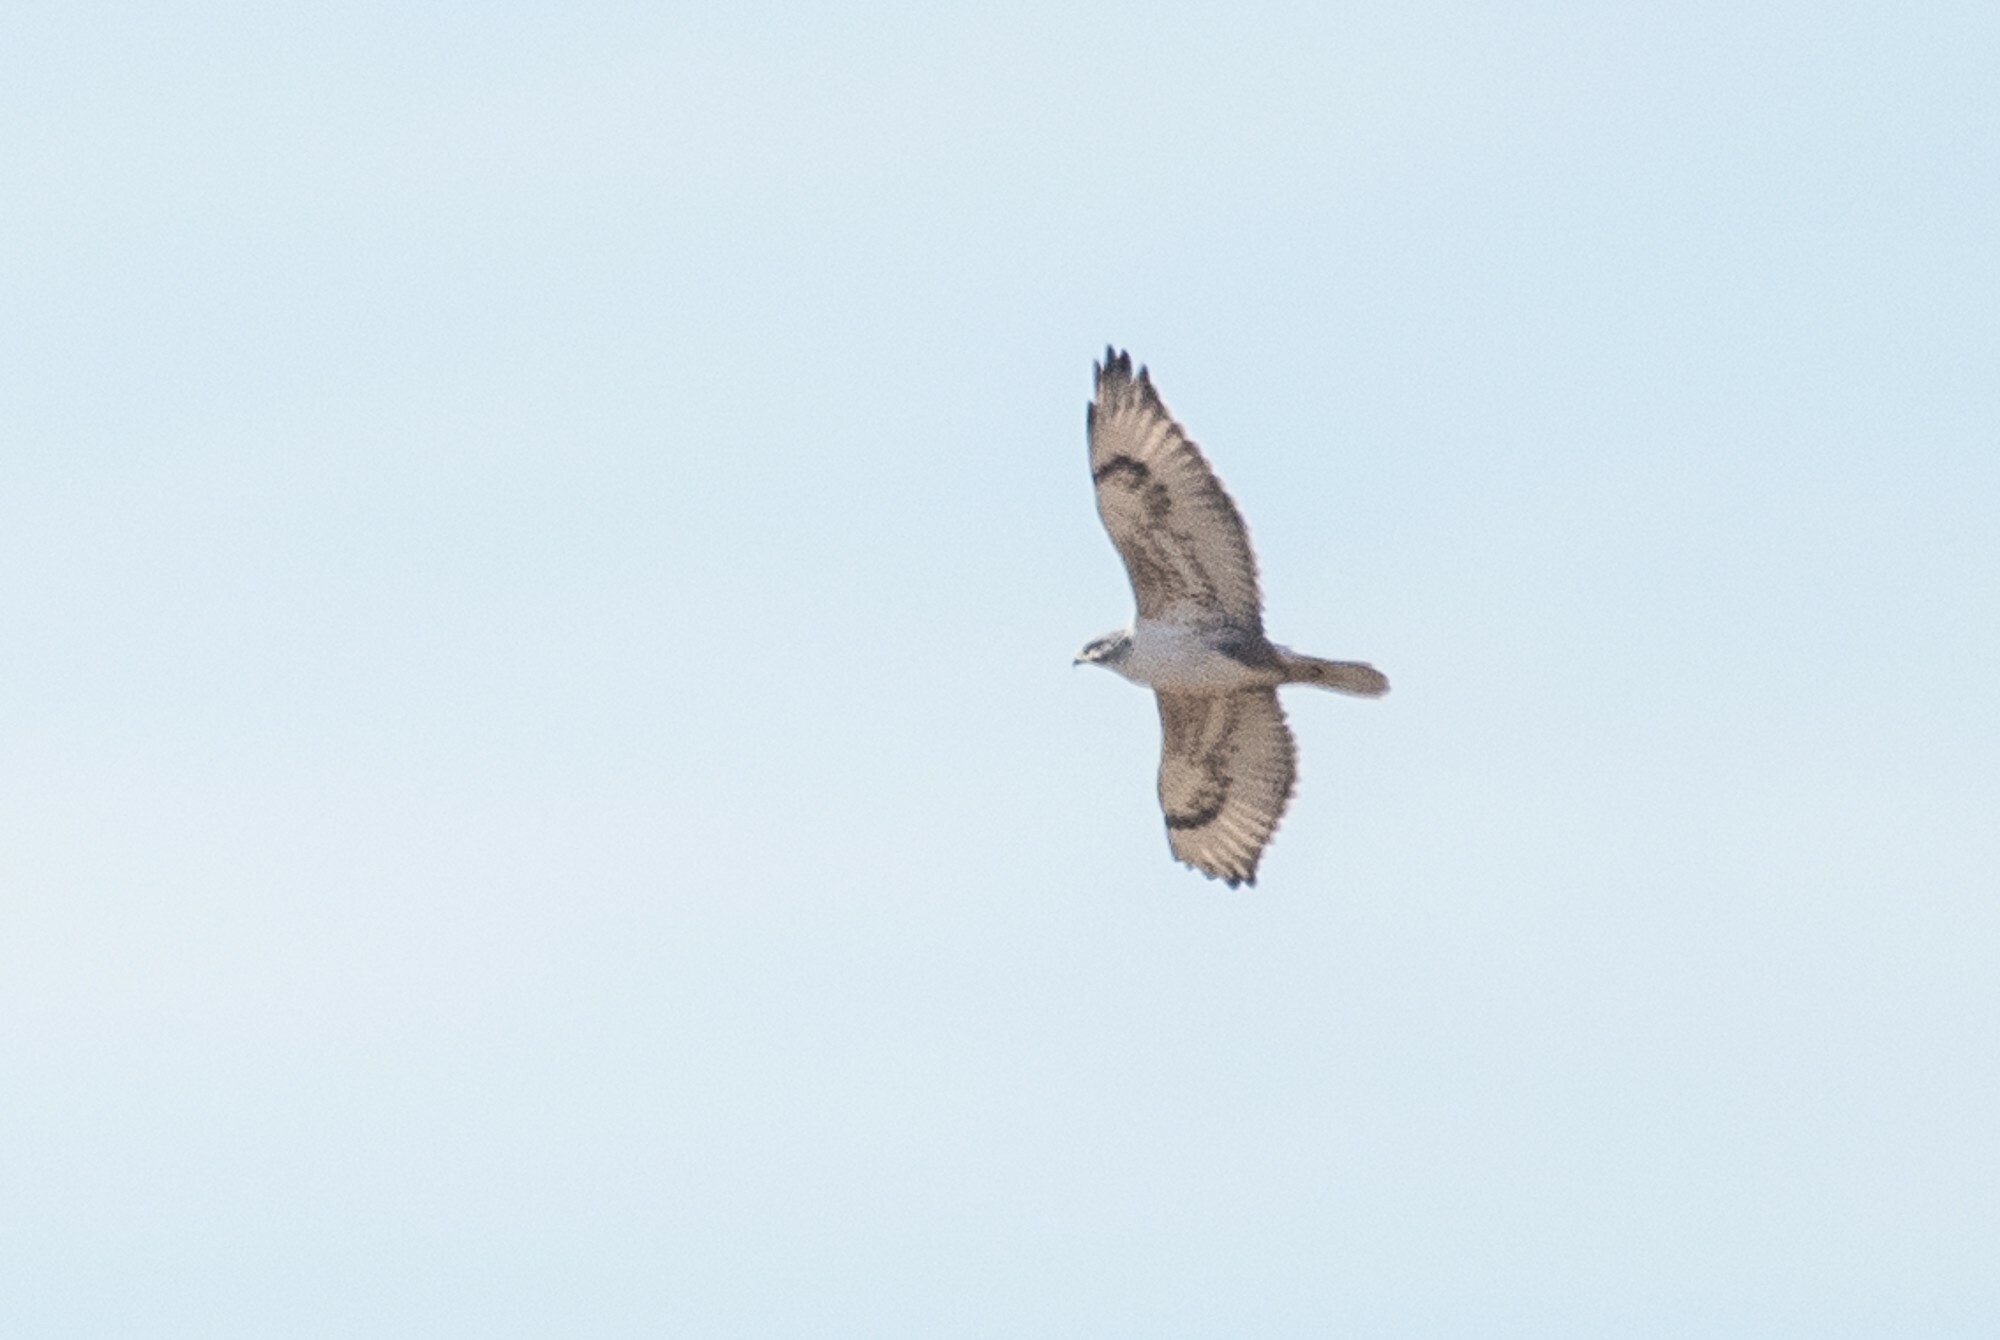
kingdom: Animalia
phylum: Chordata
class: Aves
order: Accipitriformes
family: Accipitridae
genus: Buteo
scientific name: Buteo regalis
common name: Ferruginous hawk
